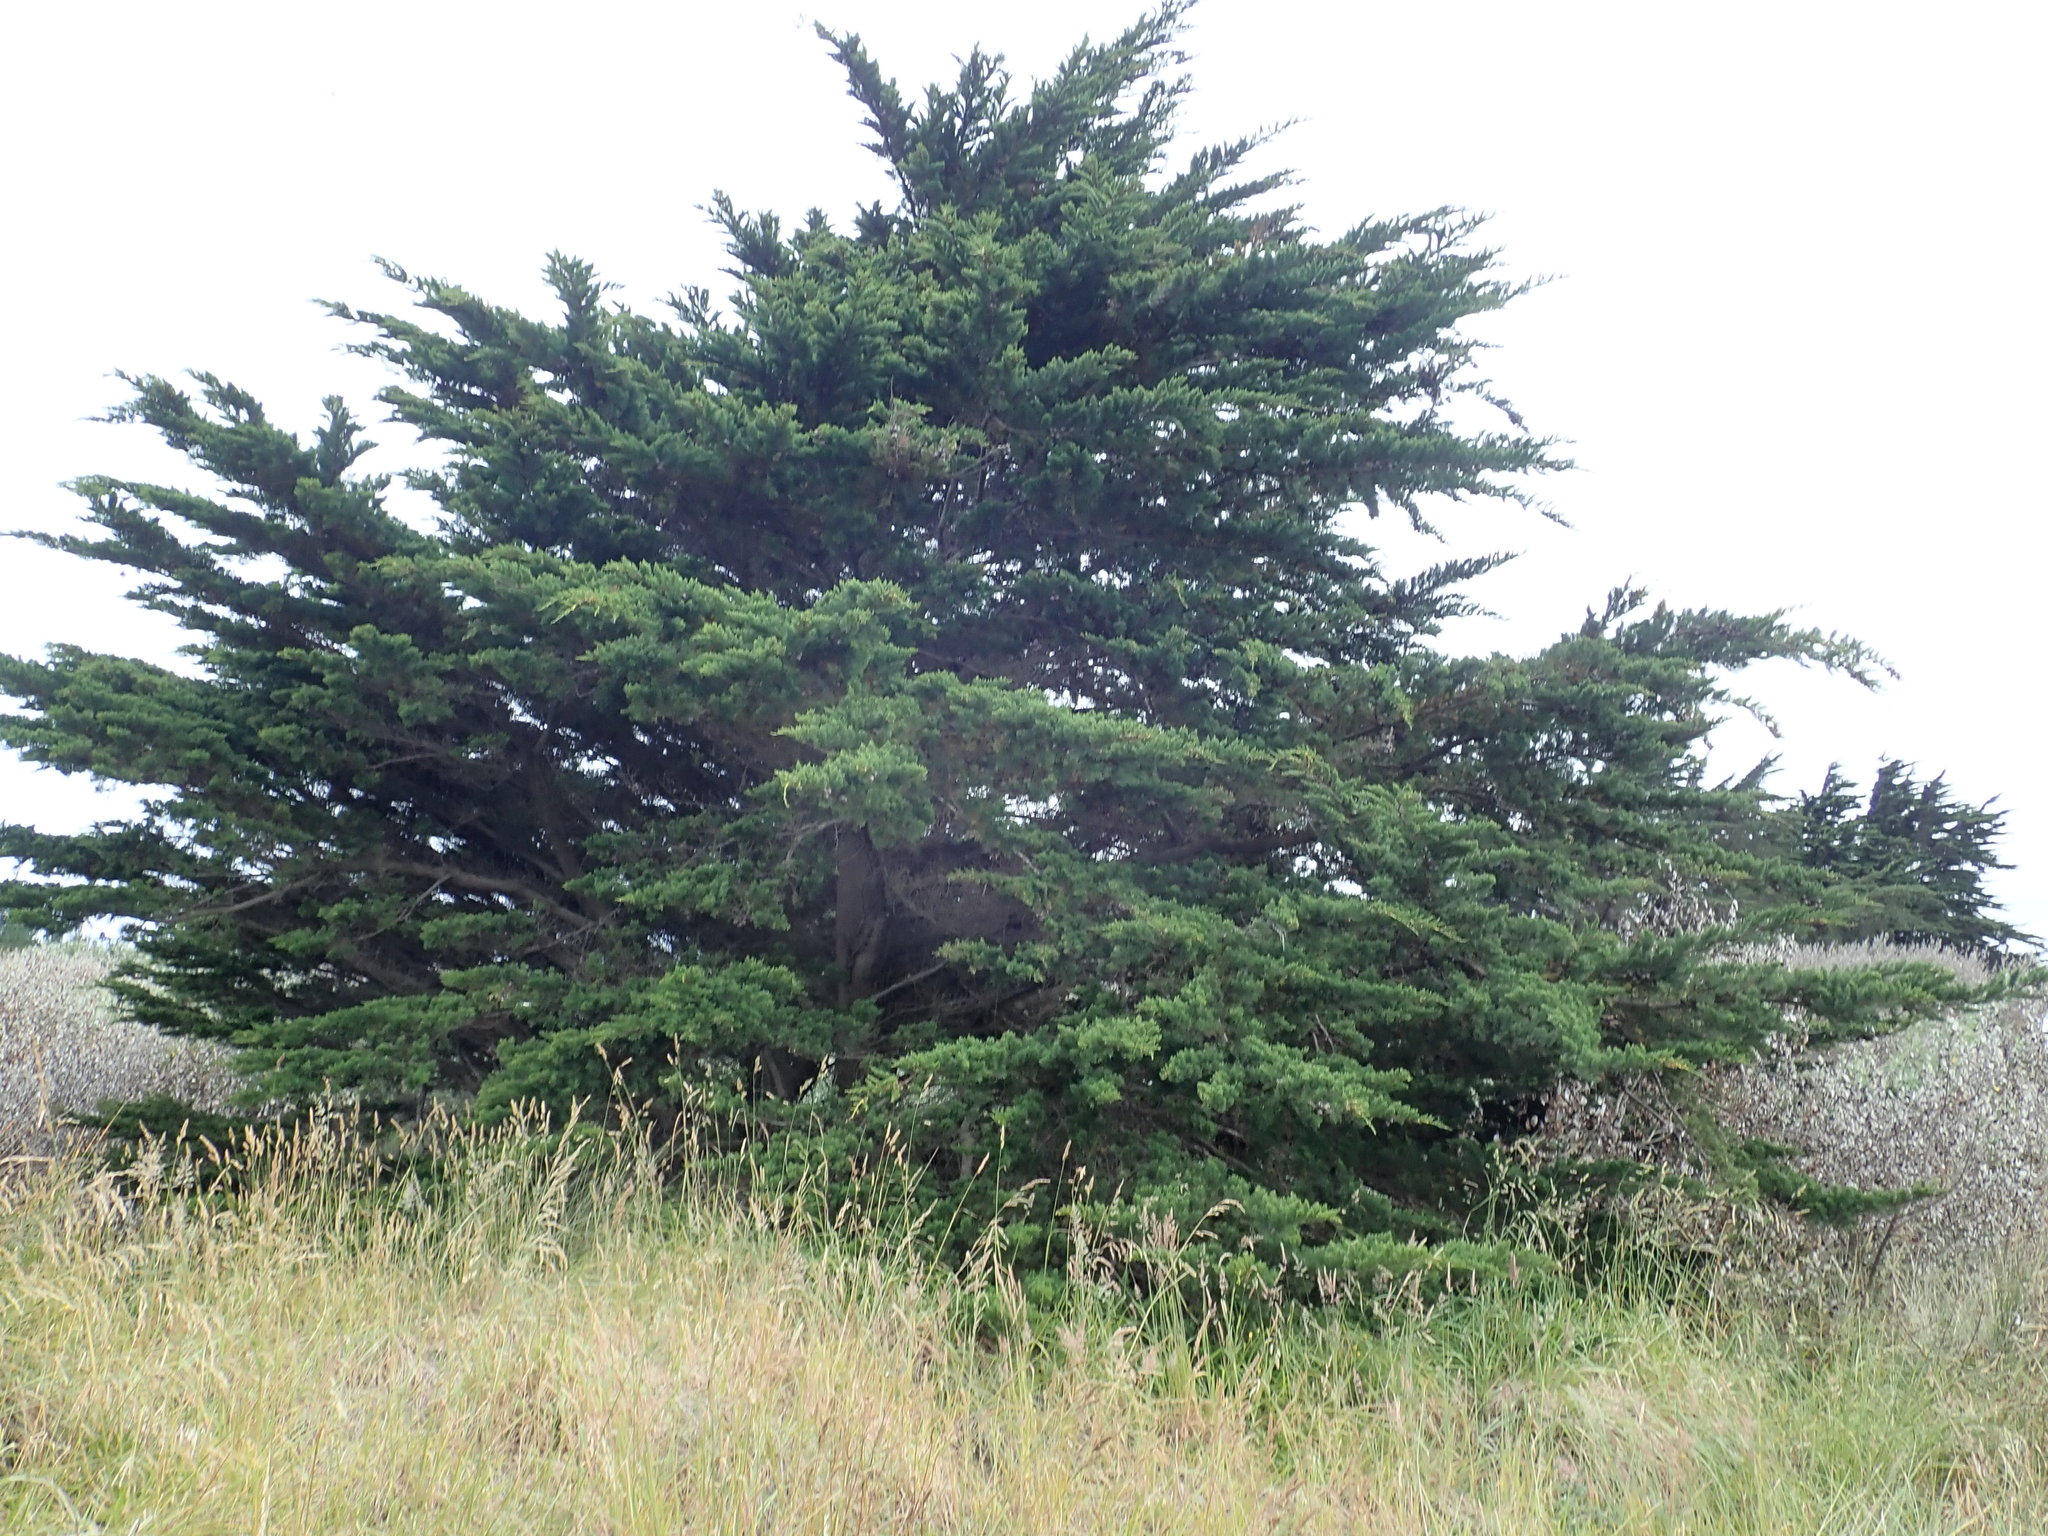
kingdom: Plantae
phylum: Tracheophyta
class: Pinopsida
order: Pinales
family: Cupressaceae
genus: Cupressus
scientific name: Cupressus macrocarpa
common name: Monterey cypress
